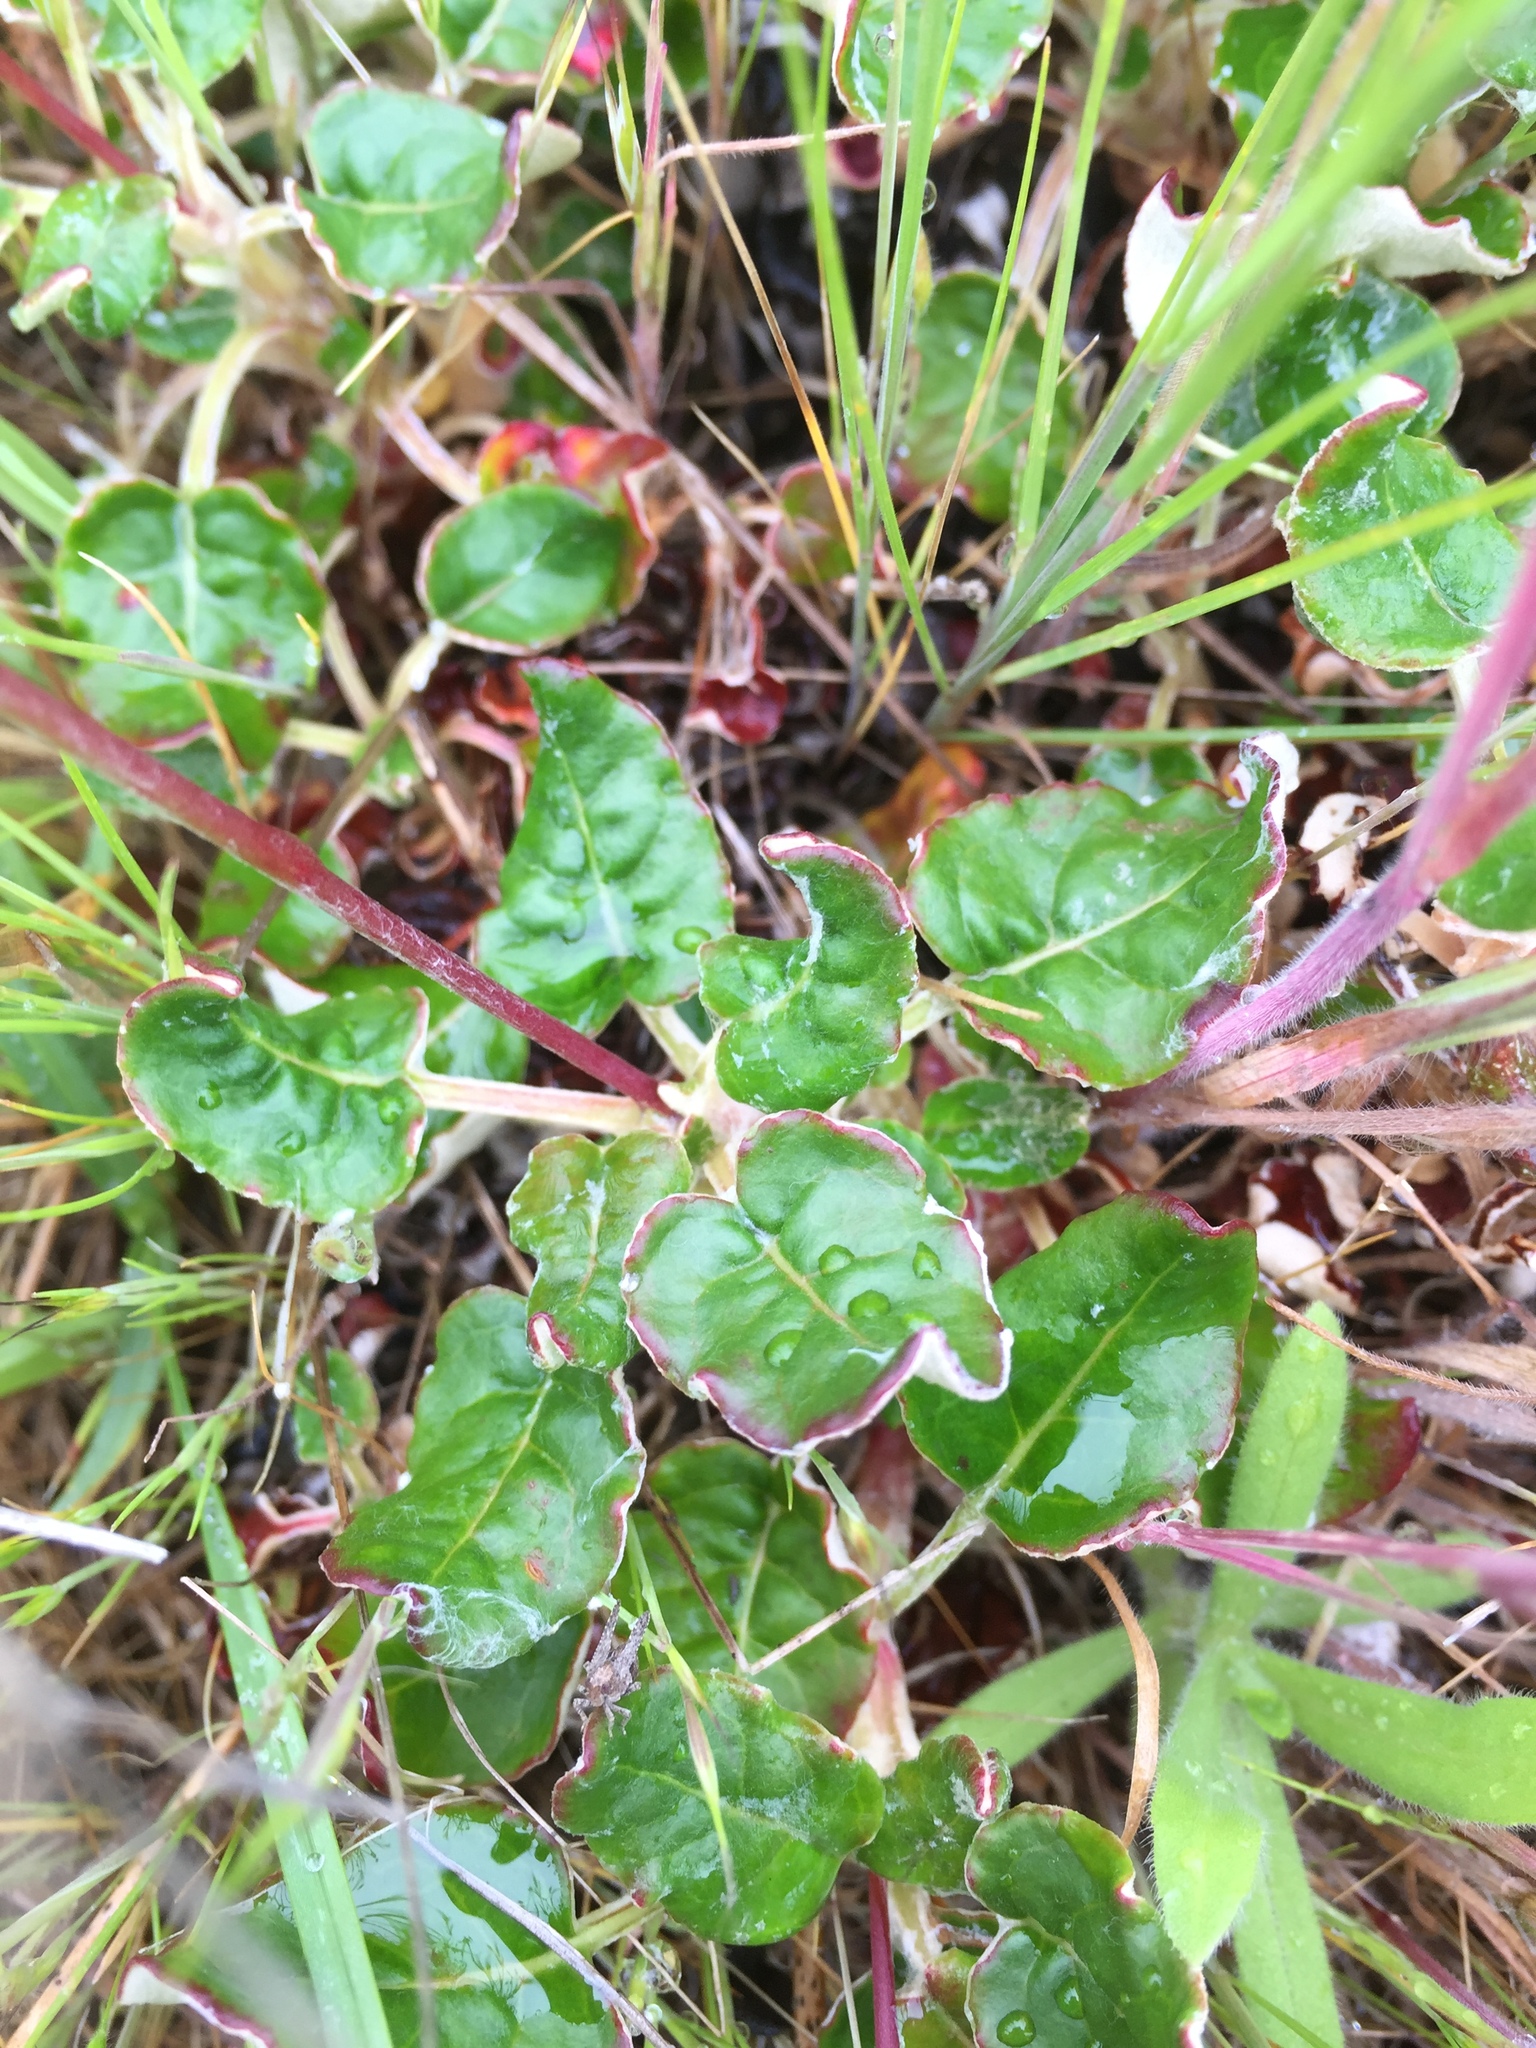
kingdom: Plantae
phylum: Tracheophyta
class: Magnoliopsida
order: Caryophyllales
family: Polygonaceae
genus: Eriogonum
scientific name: Eriogonum nudum
